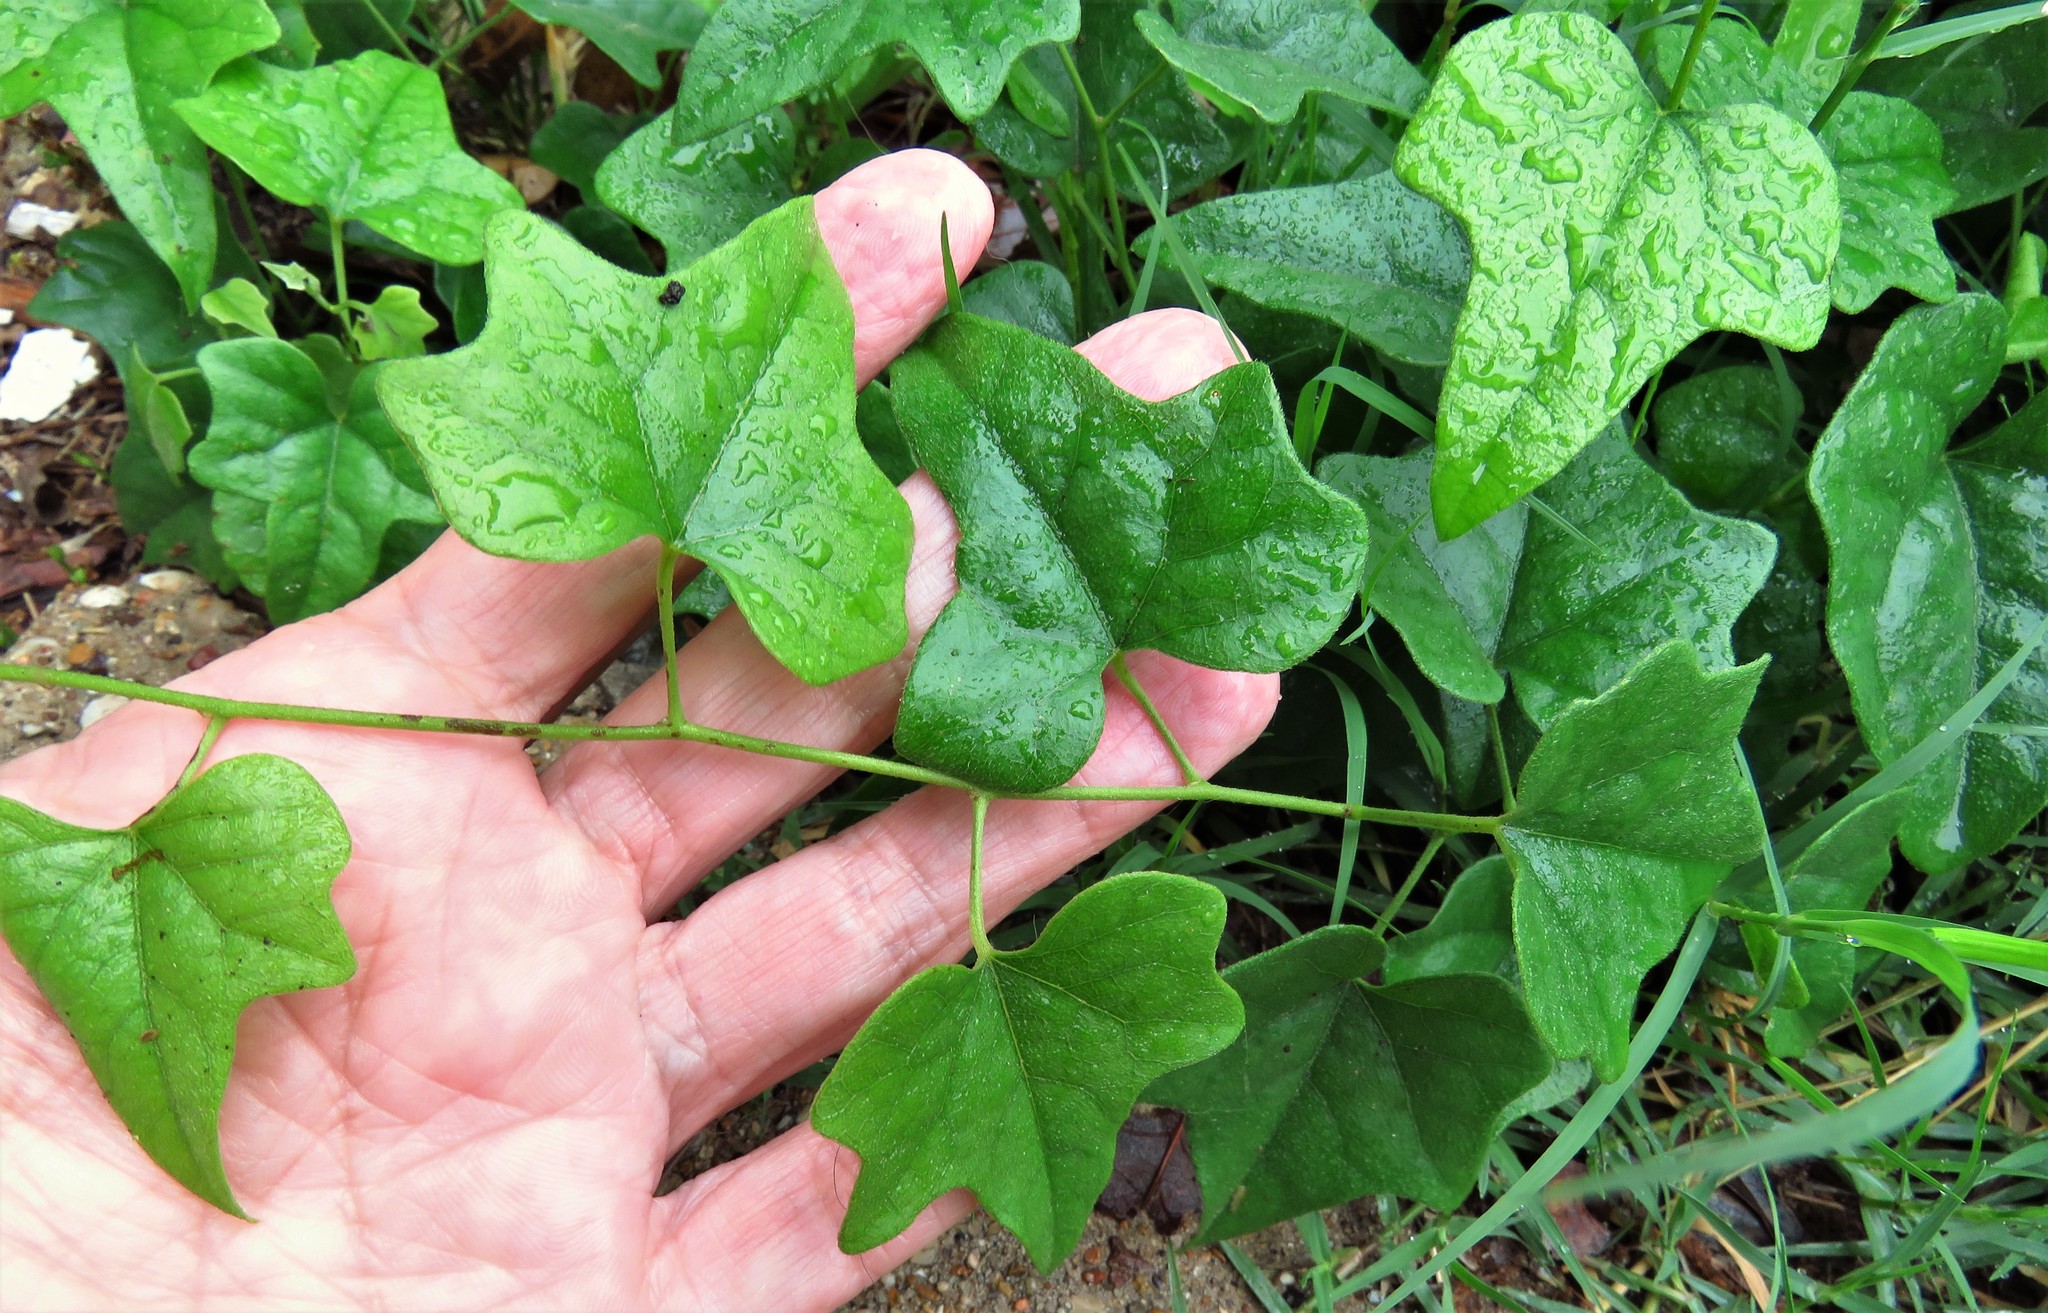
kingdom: Plantae
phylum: Tracheophyta
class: Magnoliopsida
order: Ranunculales
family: Menispermaceae
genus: Cocculus
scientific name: Cocculus carolinus
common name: Carolina moonseed
